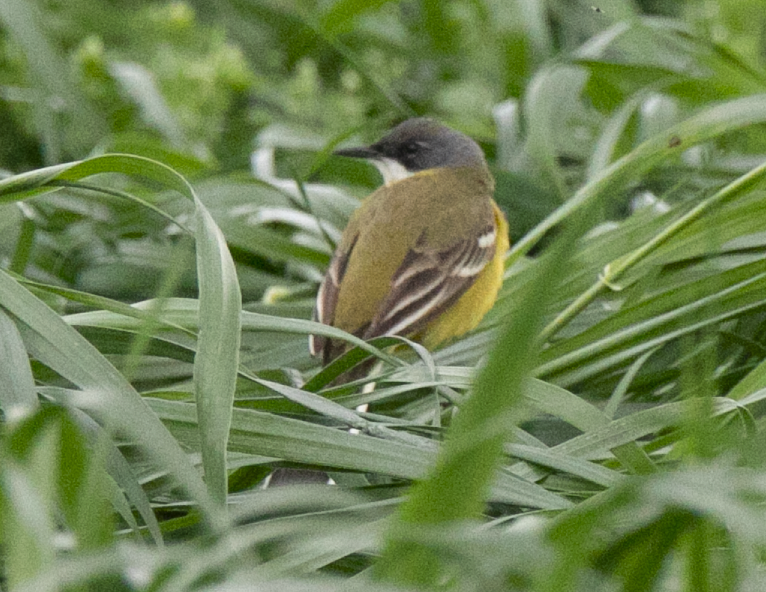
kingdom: Animalia
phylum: Chordata
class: Aves
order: Passeriformes
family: Motacillidae
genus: Motacilla
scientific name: Motacilla flava
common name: Western yellow wagtail
